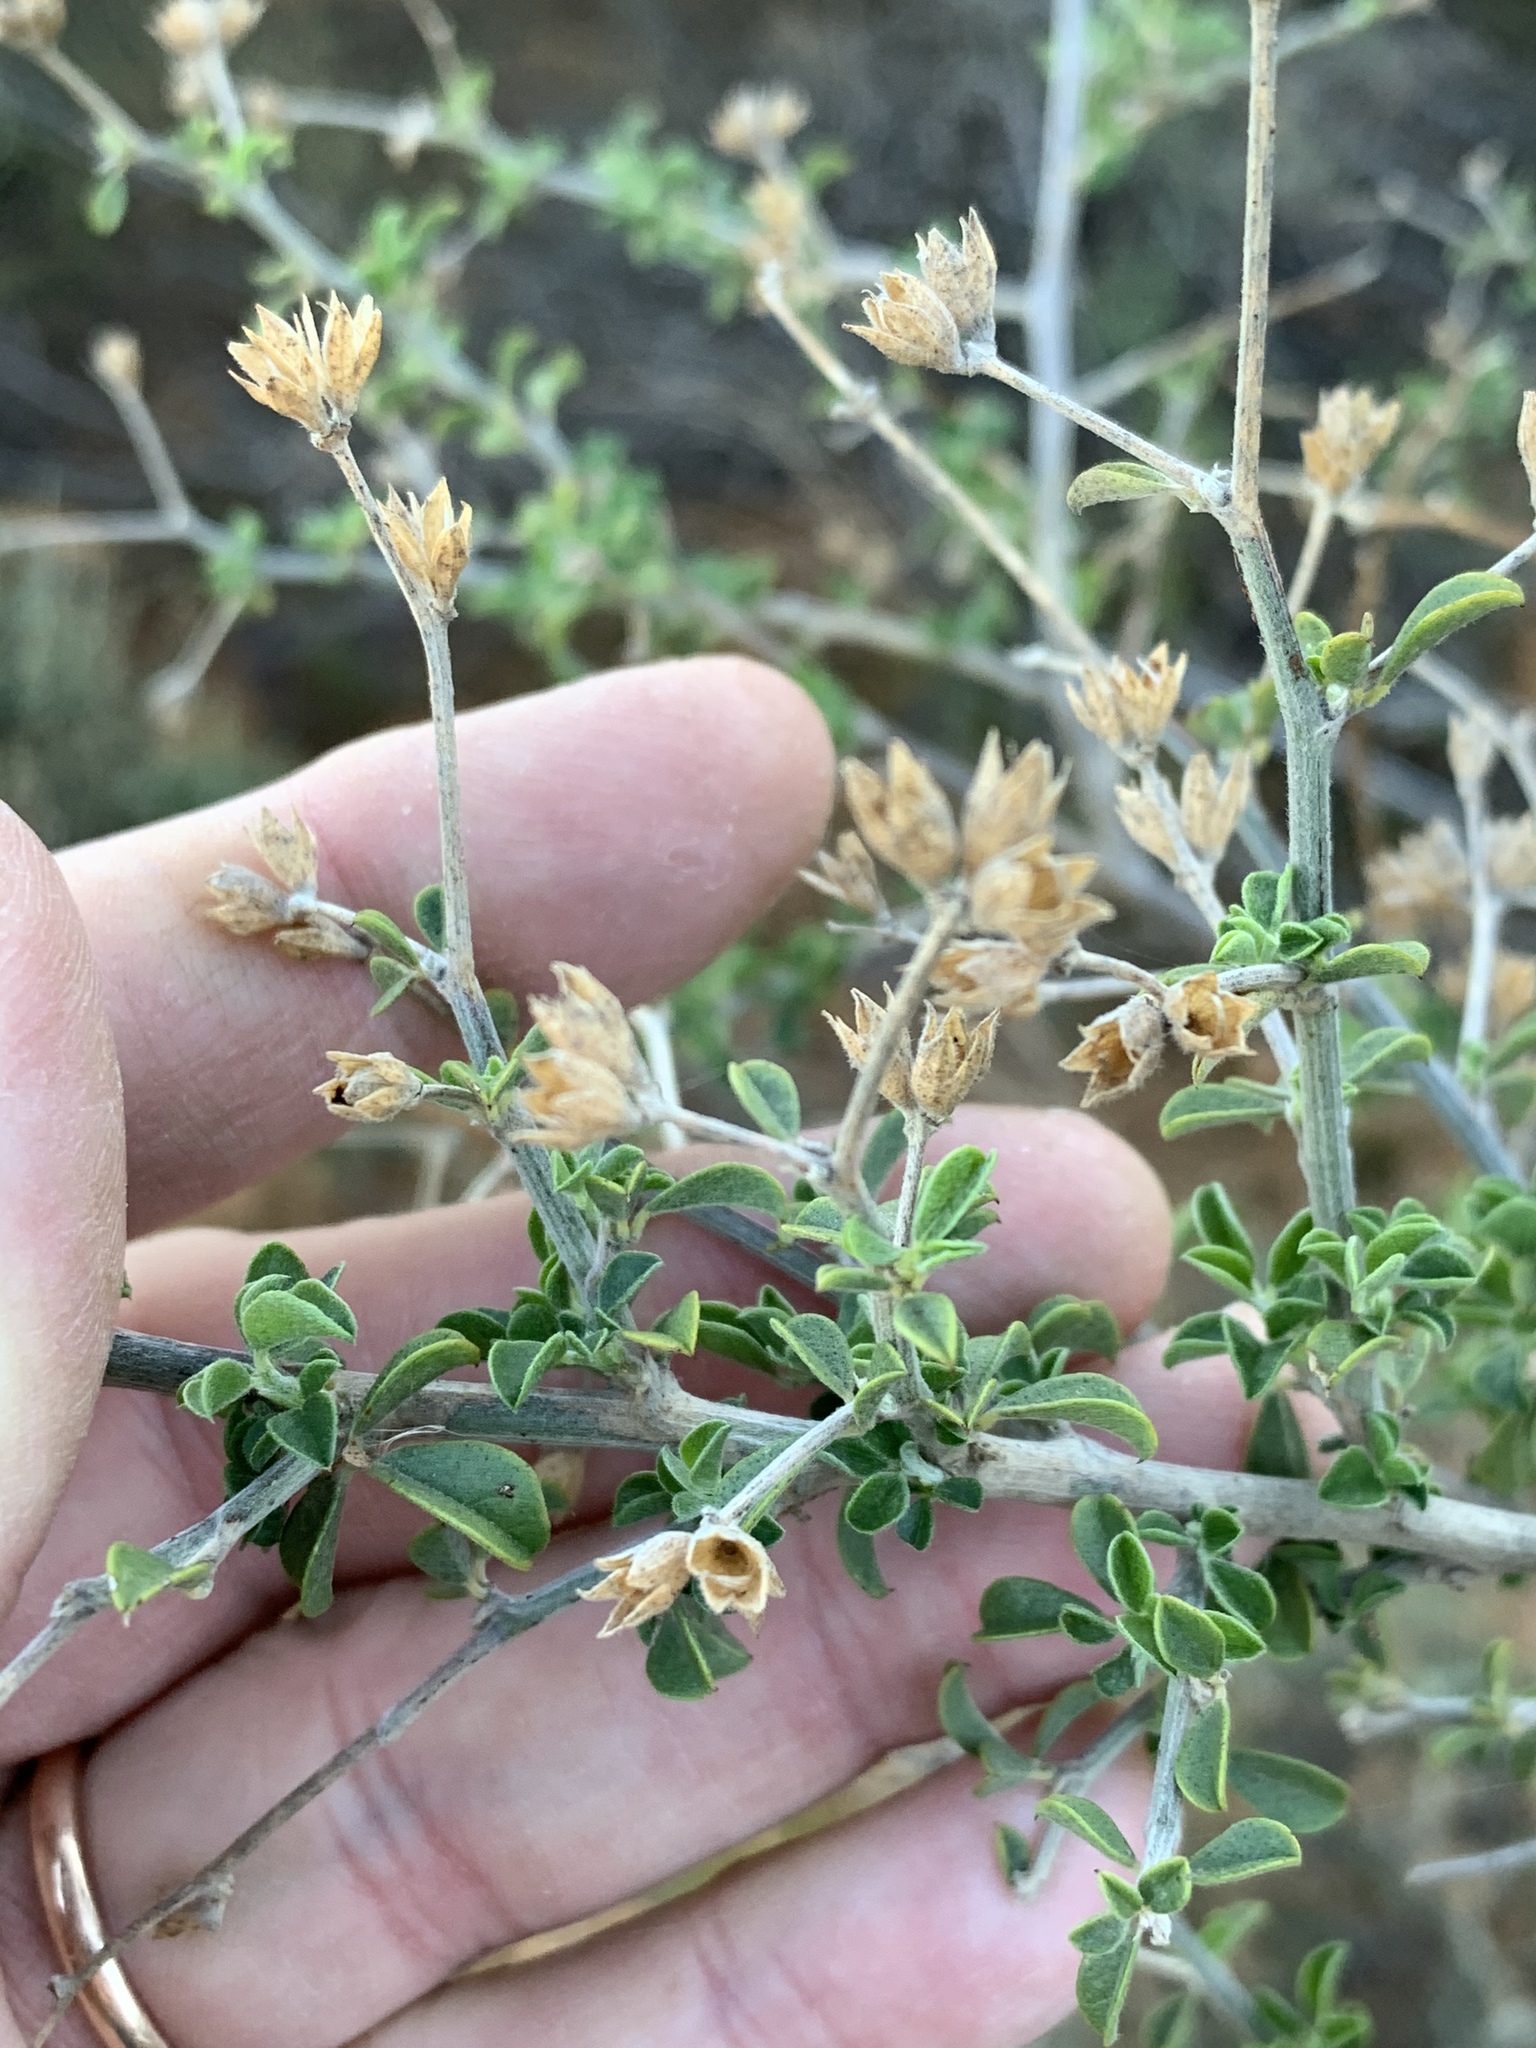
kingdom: Plantae
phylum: Tracheophyta
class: Magnoliopsida
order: Fabales
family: Fabaceae
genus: Psoralea
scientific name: Psoralea hirta
